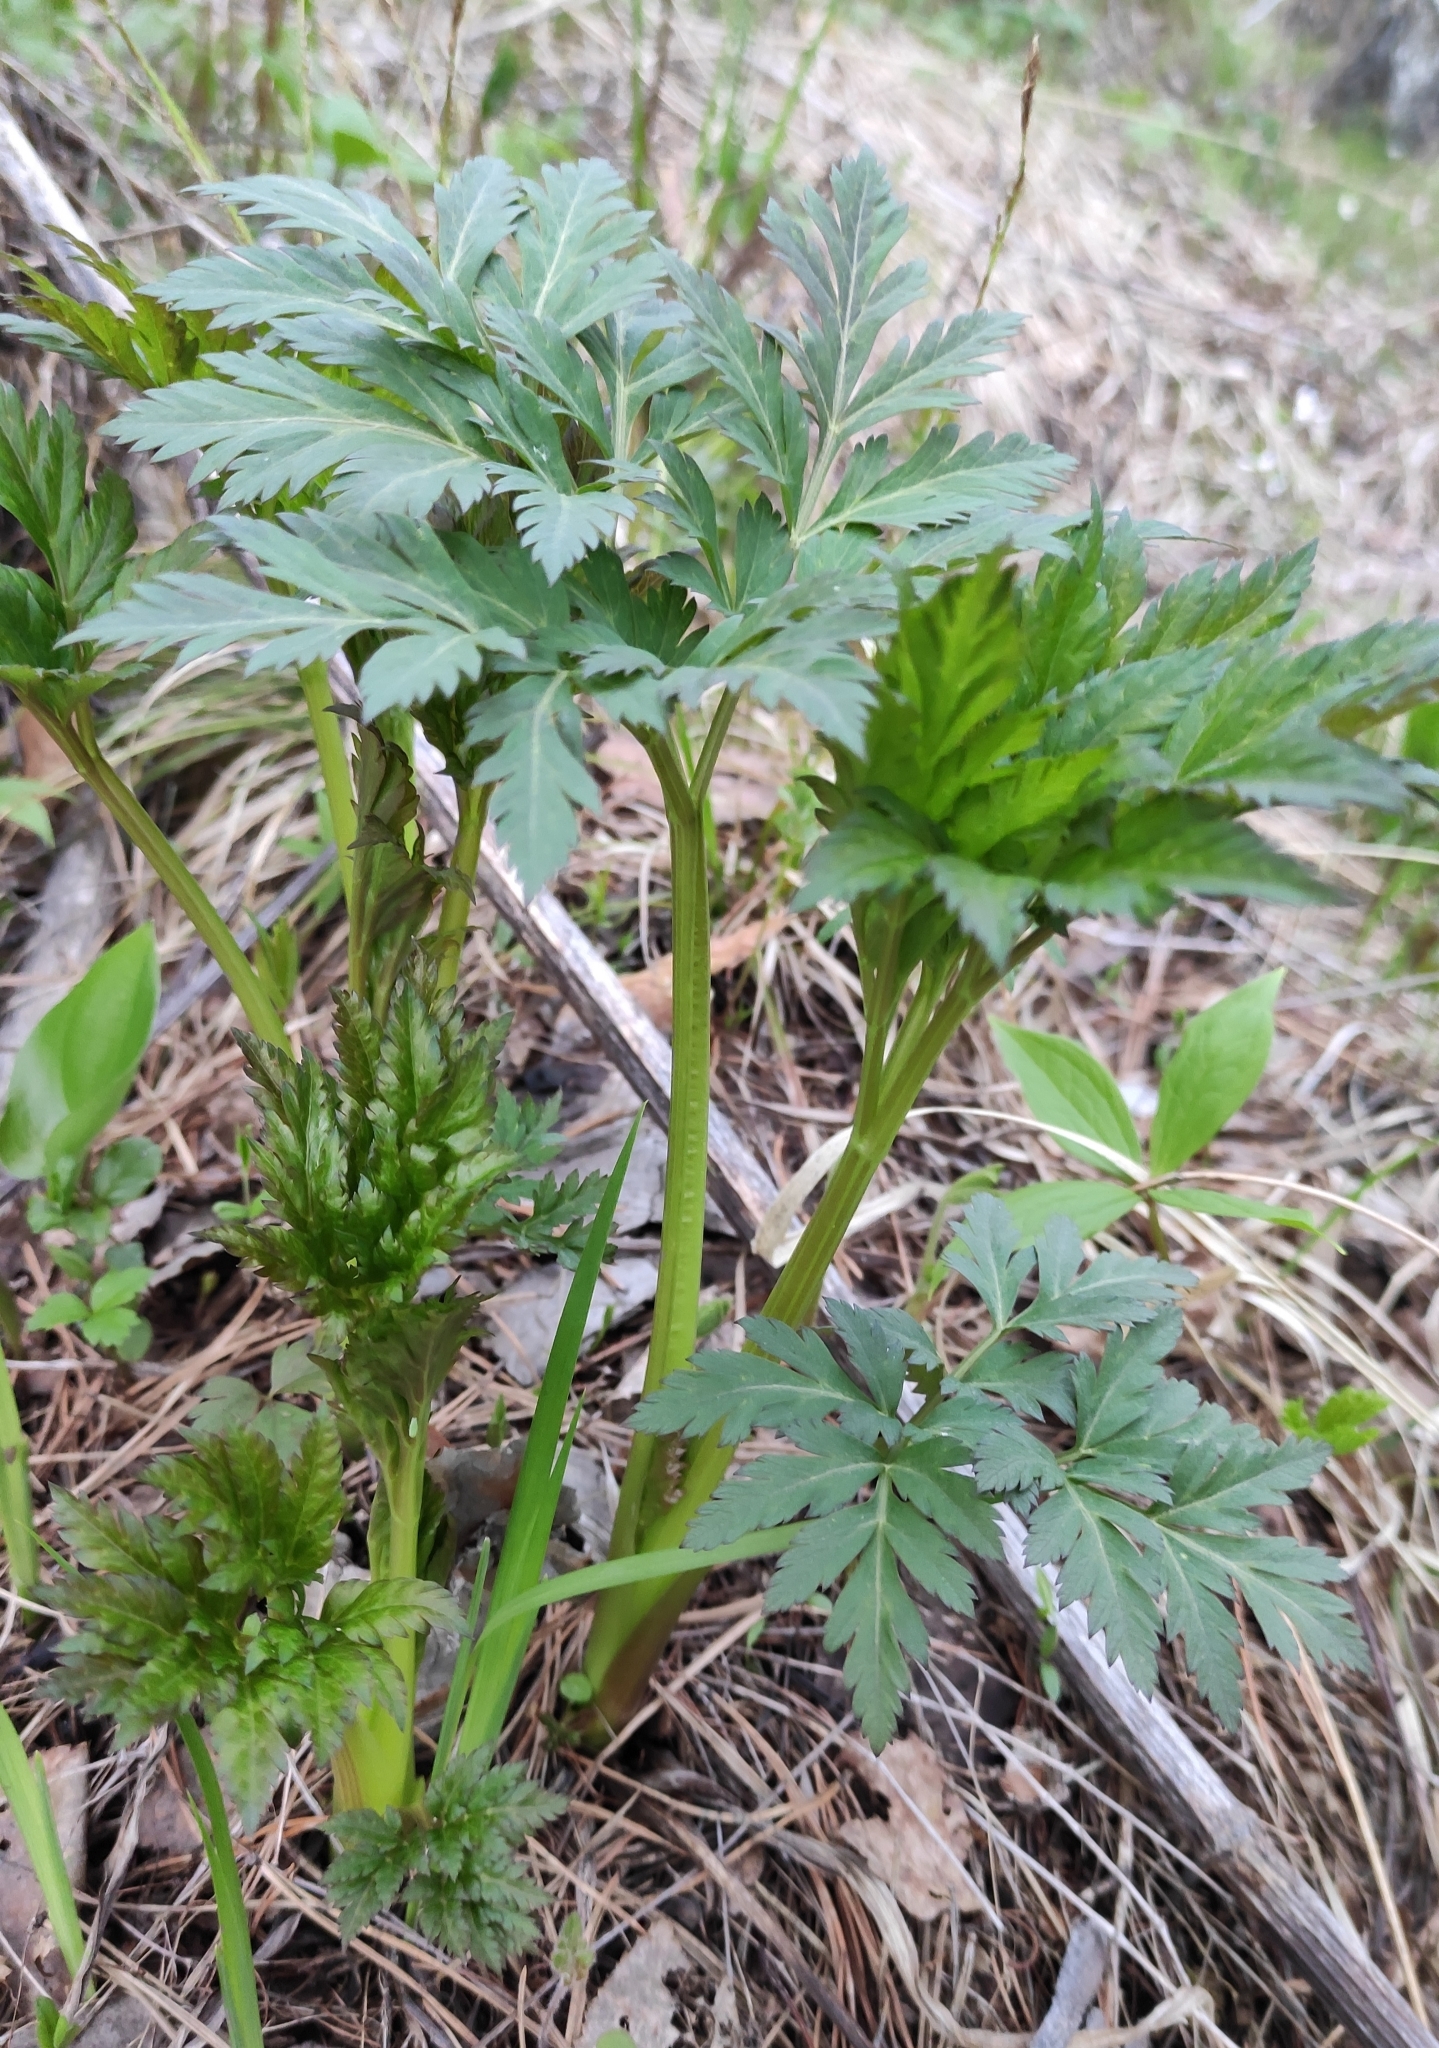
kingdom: Plantae
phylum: Tracheophyta
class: Magnoliopsida
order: Apiales
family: Apiaceae
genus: Pleurospermum
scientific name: Pleurospermum uralense
